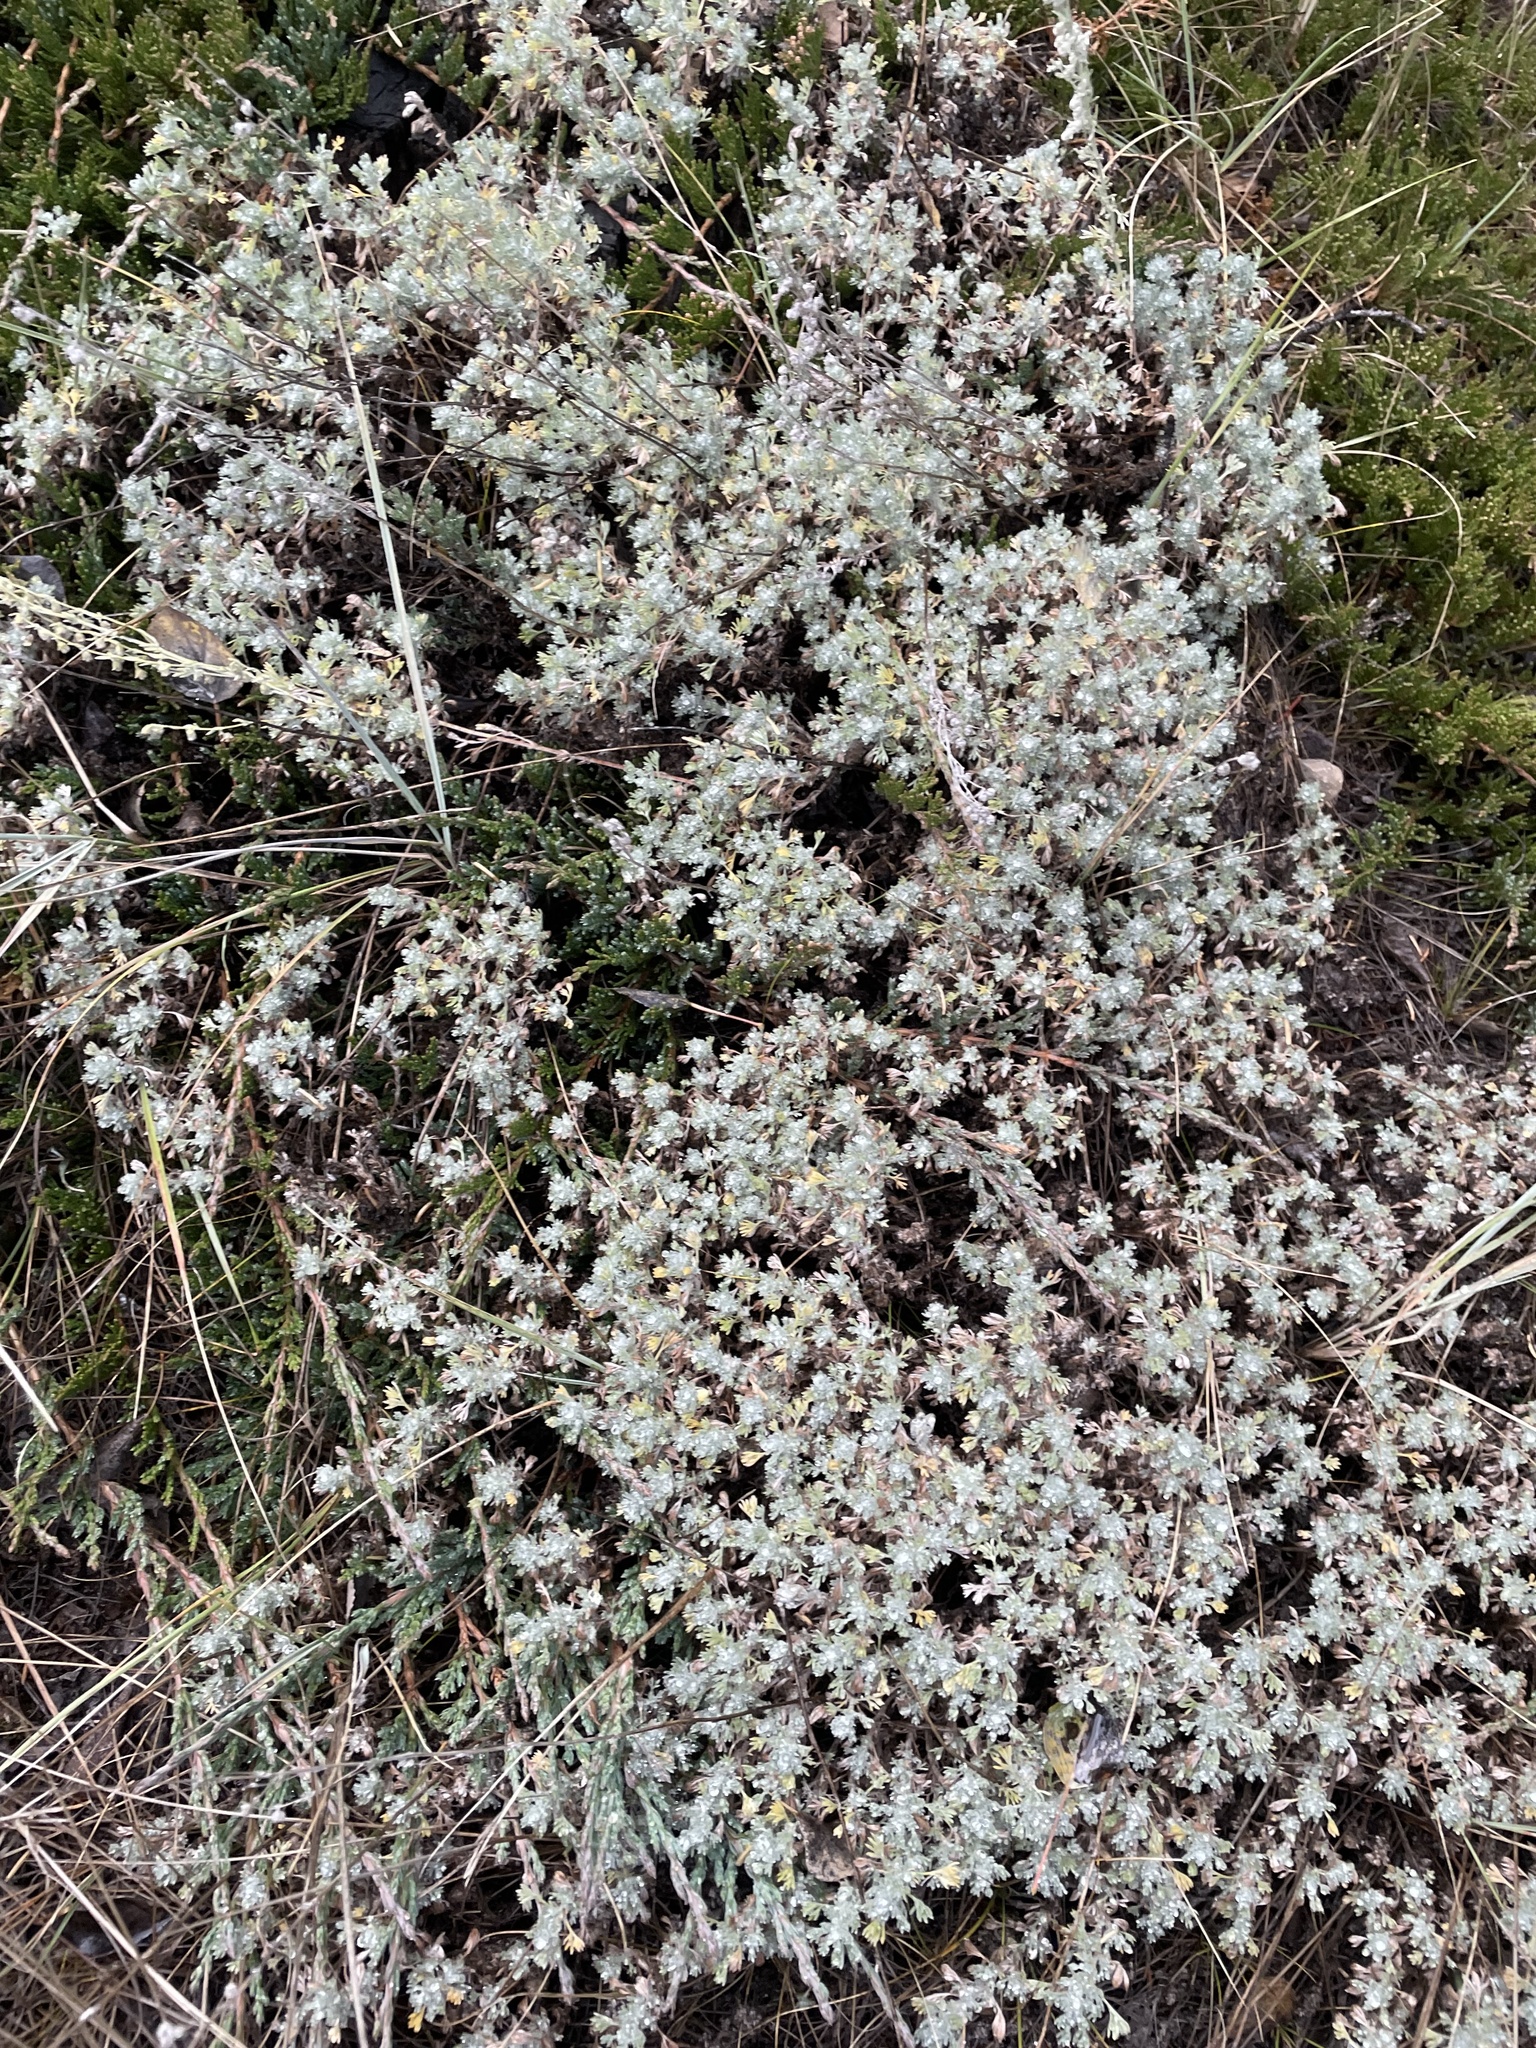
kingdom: Plantae
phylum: Tracheophyta
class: Magnoliopsida
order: Asterales
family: Asteraceae
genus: Artemisia
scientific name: Artemisia frigida
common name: Prairie sagewort
